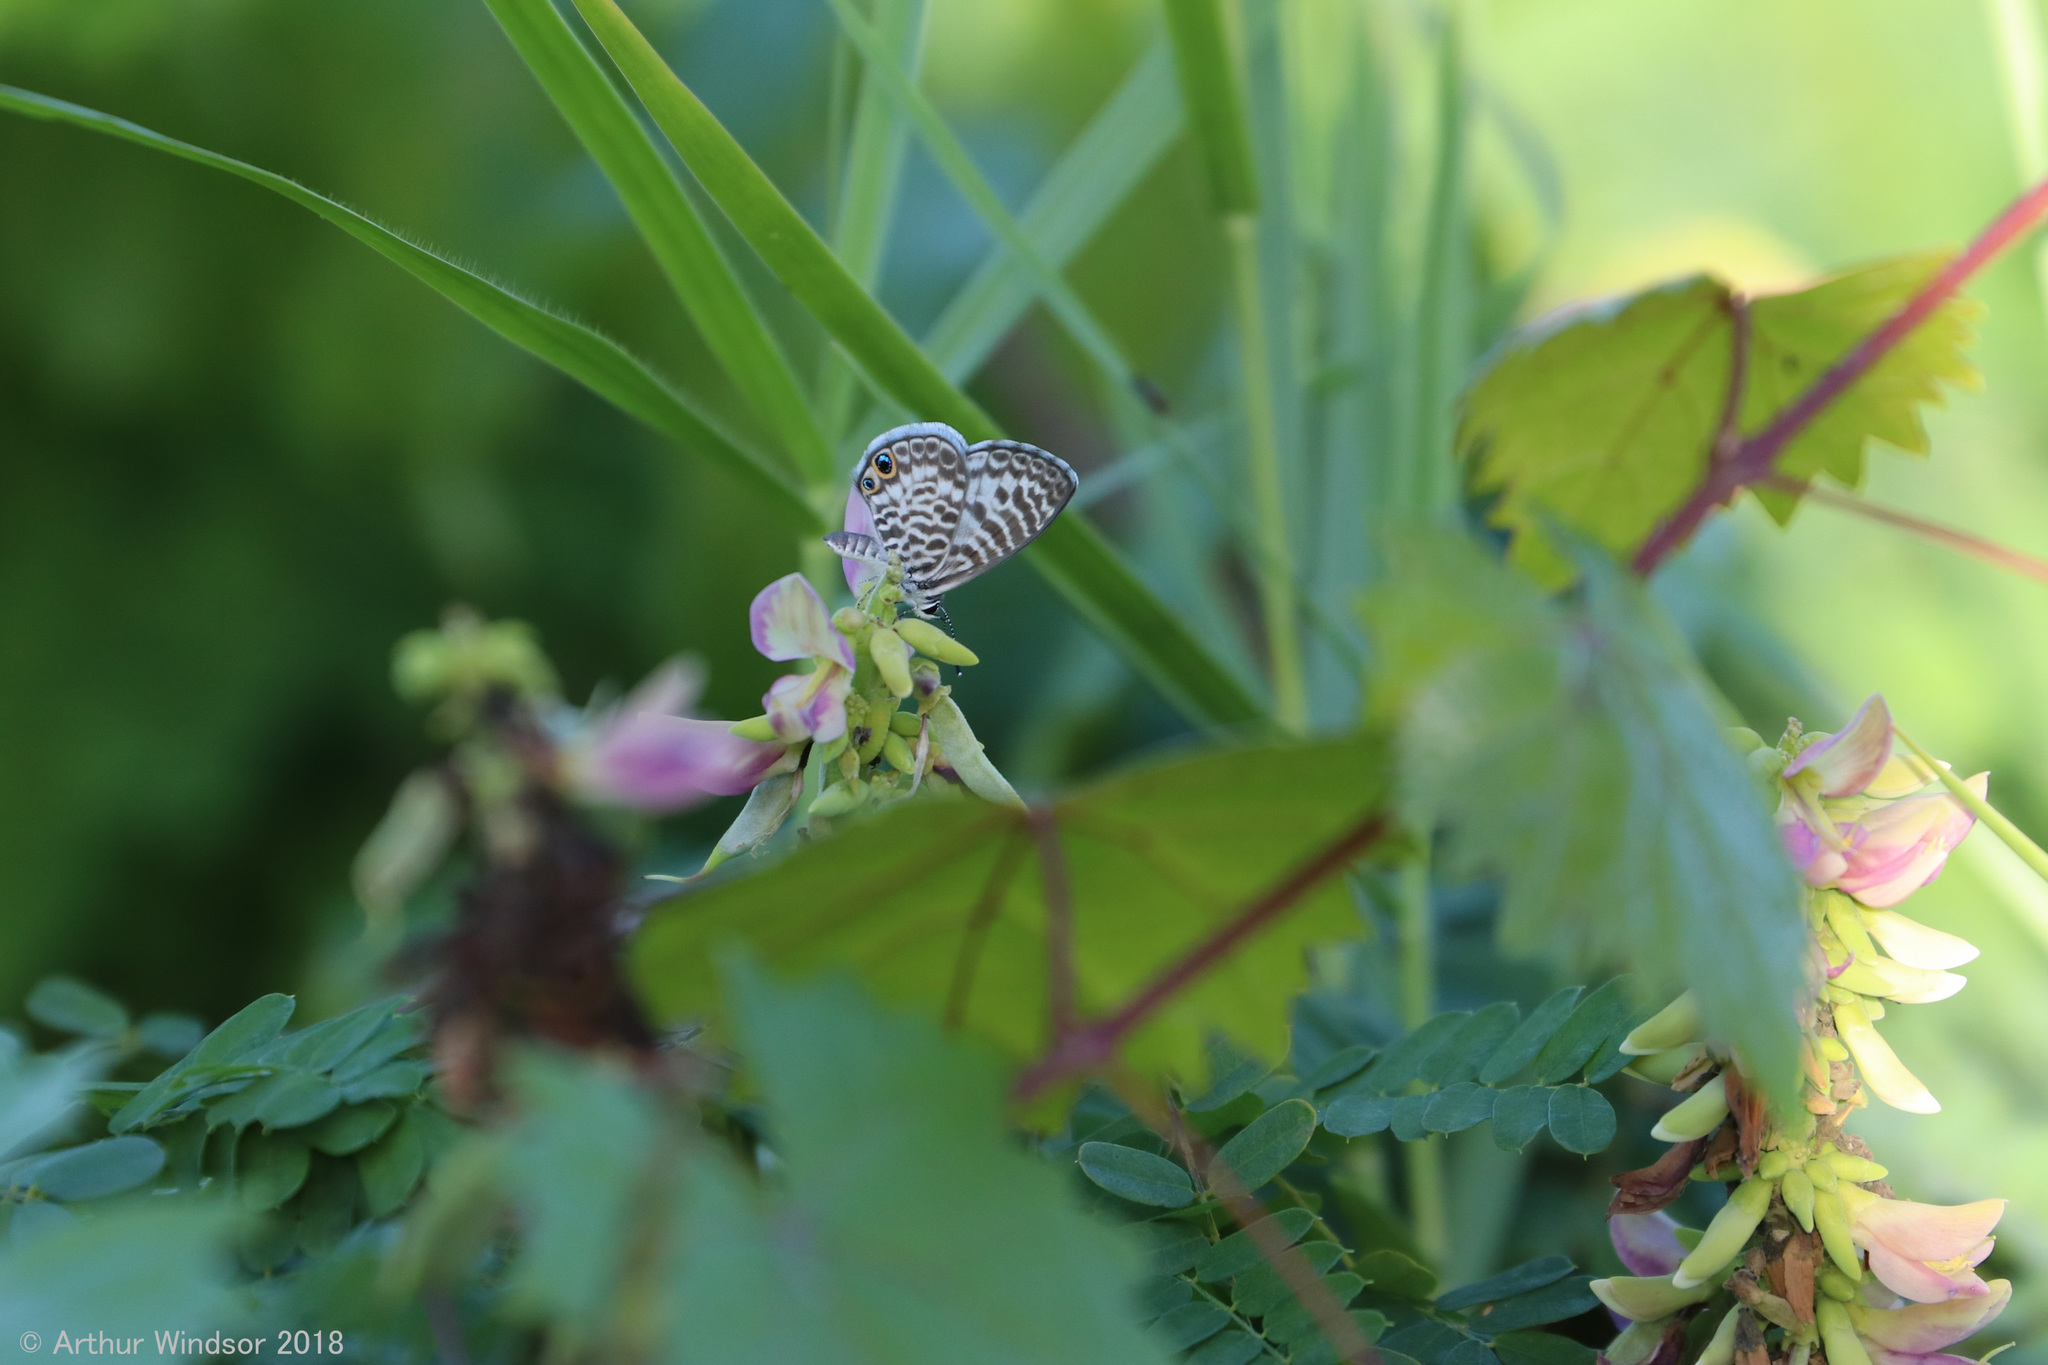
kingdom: Animalia
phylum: Arthropoda
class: Insecta
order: Lepidoptera
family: Lycaenidae
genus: Leptotes
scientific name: Leptotes cassius
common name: Cassius blue
